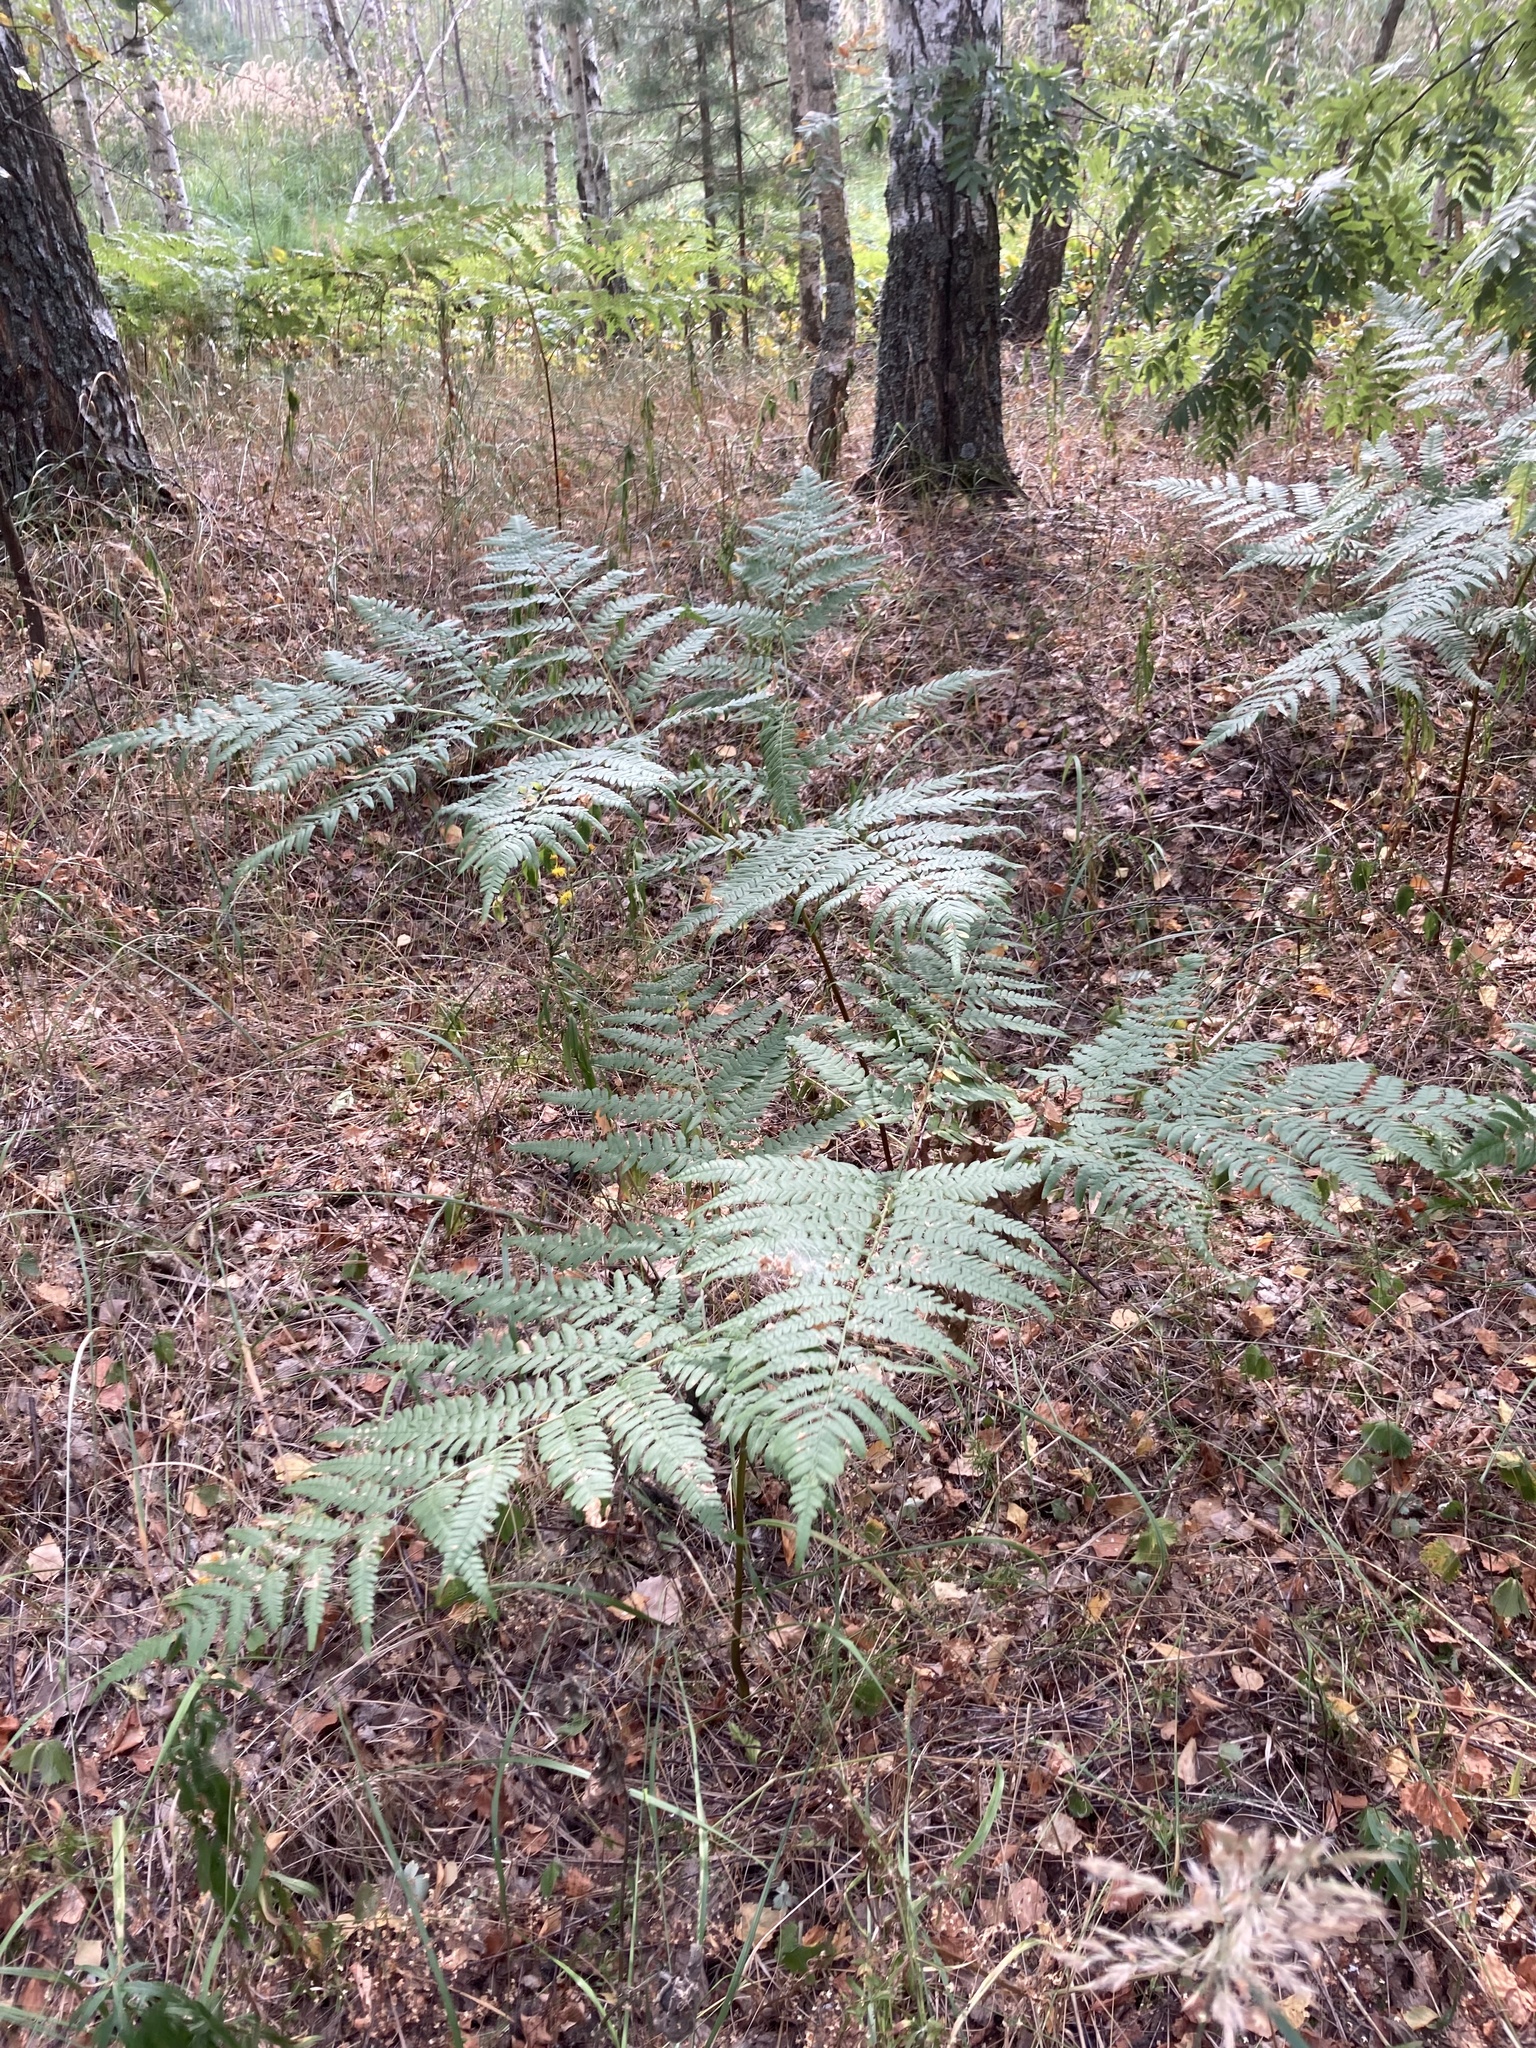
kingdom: Plantae
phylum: Tracheophyta
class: Polypodiopsida
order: Polypodiales
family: Dennstaedtiaceae
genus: Pteridium
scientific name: Pteridium aquilinum
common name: Bracken
